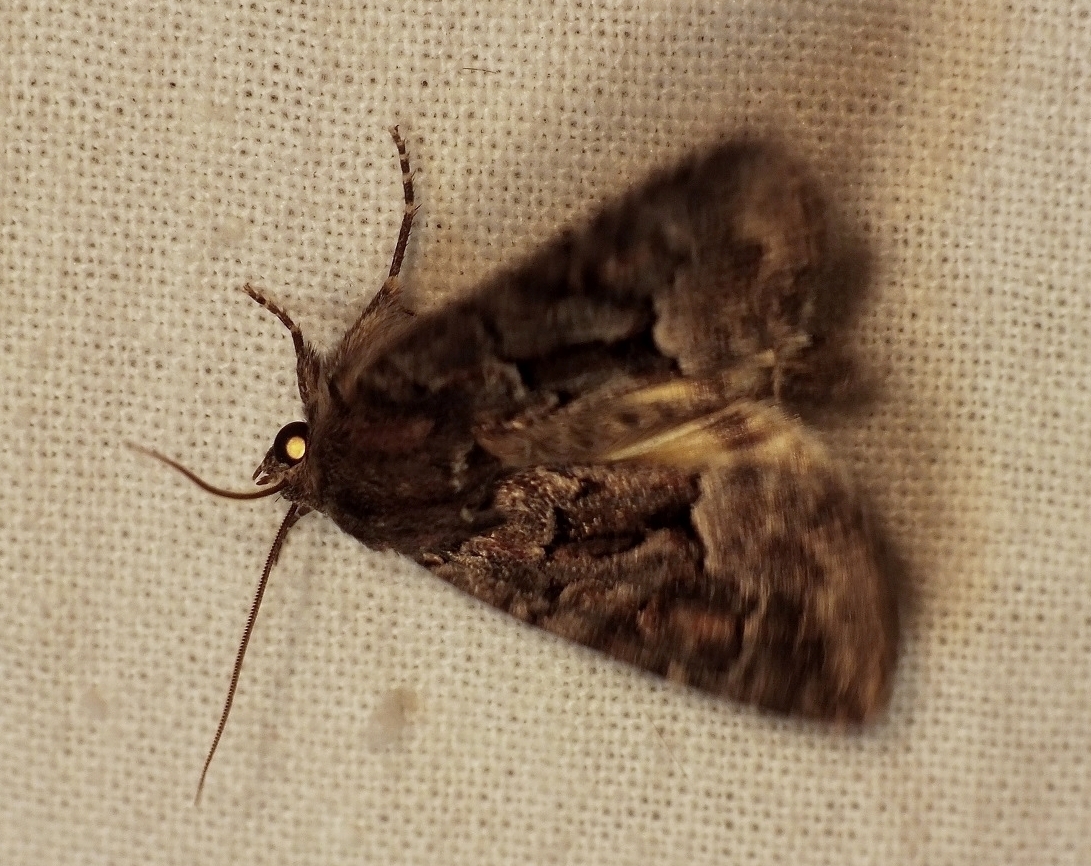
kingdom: Animalia
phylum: Arthropoda
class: Insecta
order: Lepidoptera
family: Noctuidae
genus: Thalpophila
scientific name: Thalpophila matura
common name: Straw underwing
